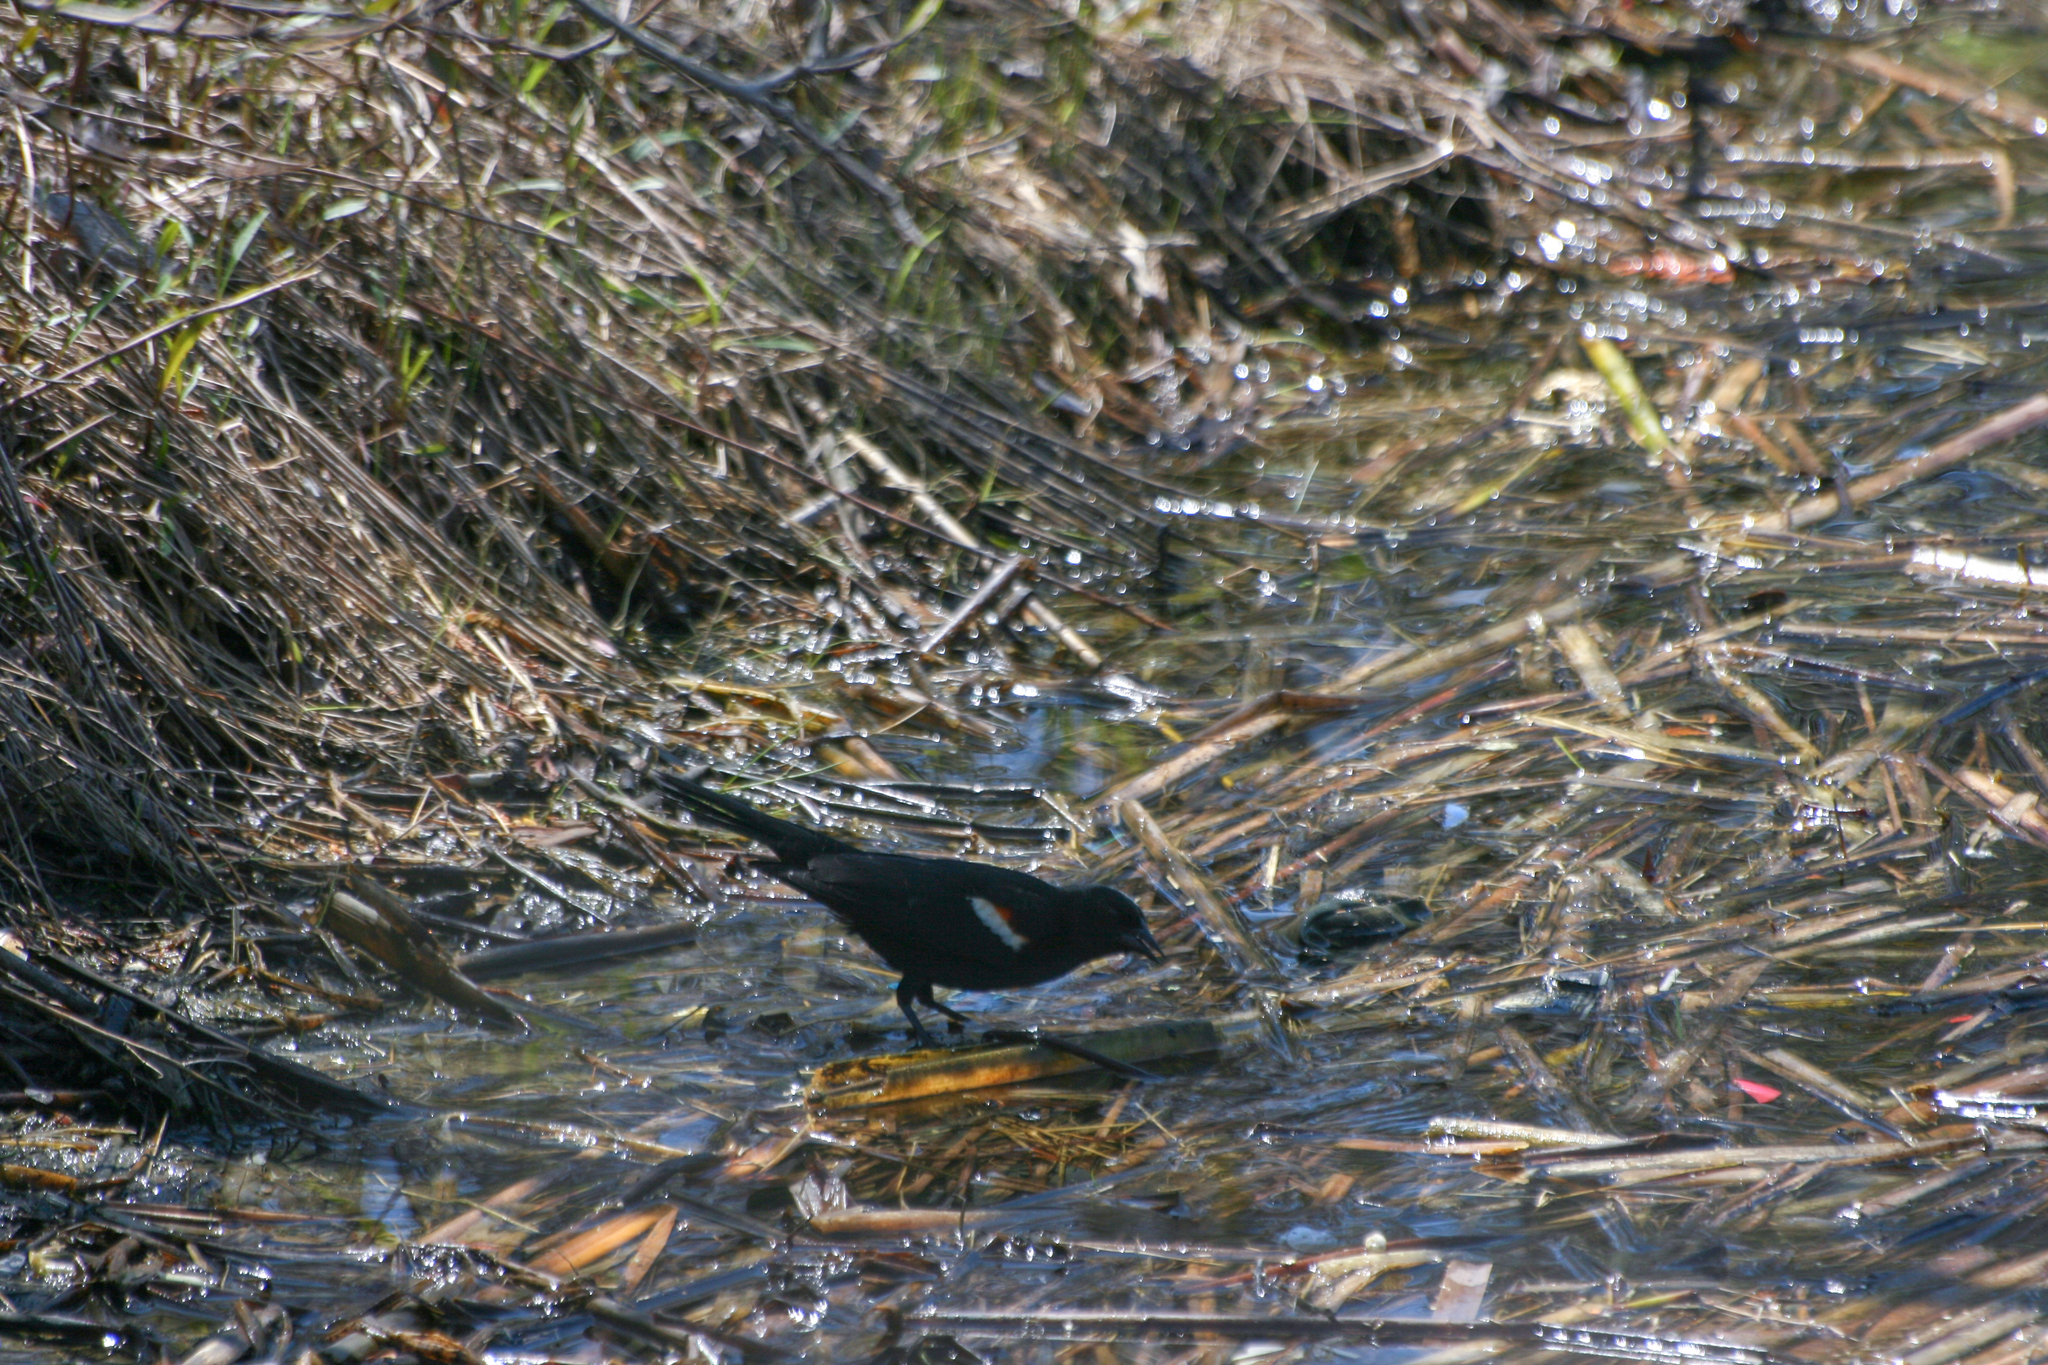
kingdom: Animalia
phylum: Chordata
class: Aves
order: Passeriformes
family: Icteridae
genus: Agelaius
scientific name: Agelaius phoeniceus
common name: Red-winged blackbird
